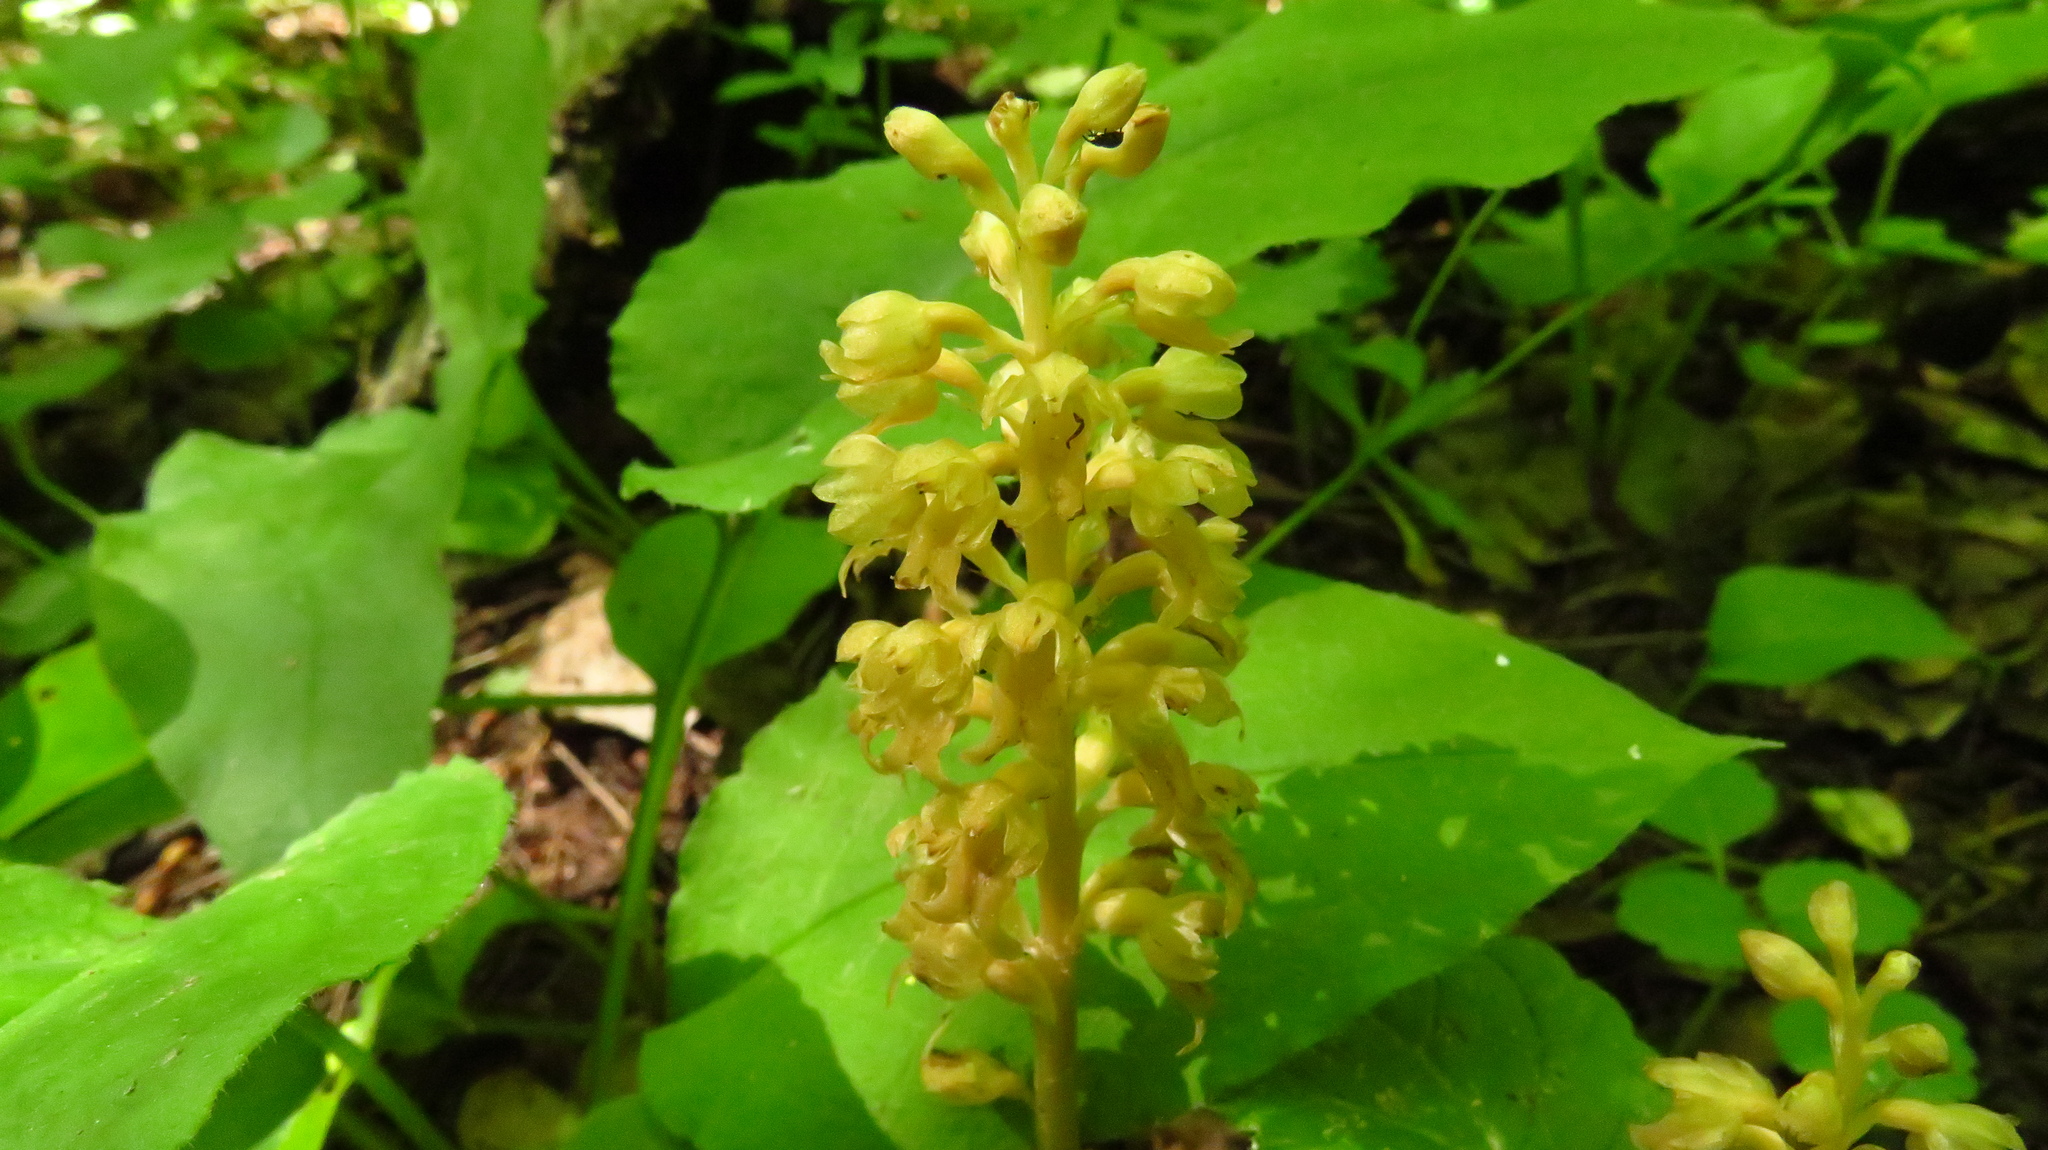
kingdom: Plantae
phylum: Tracheophyta
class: Liliopsida
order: Asparagales
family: Orchidaceae
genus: Neottia
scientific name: Neottia nidus-avis
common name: Bird's-nest orchid
